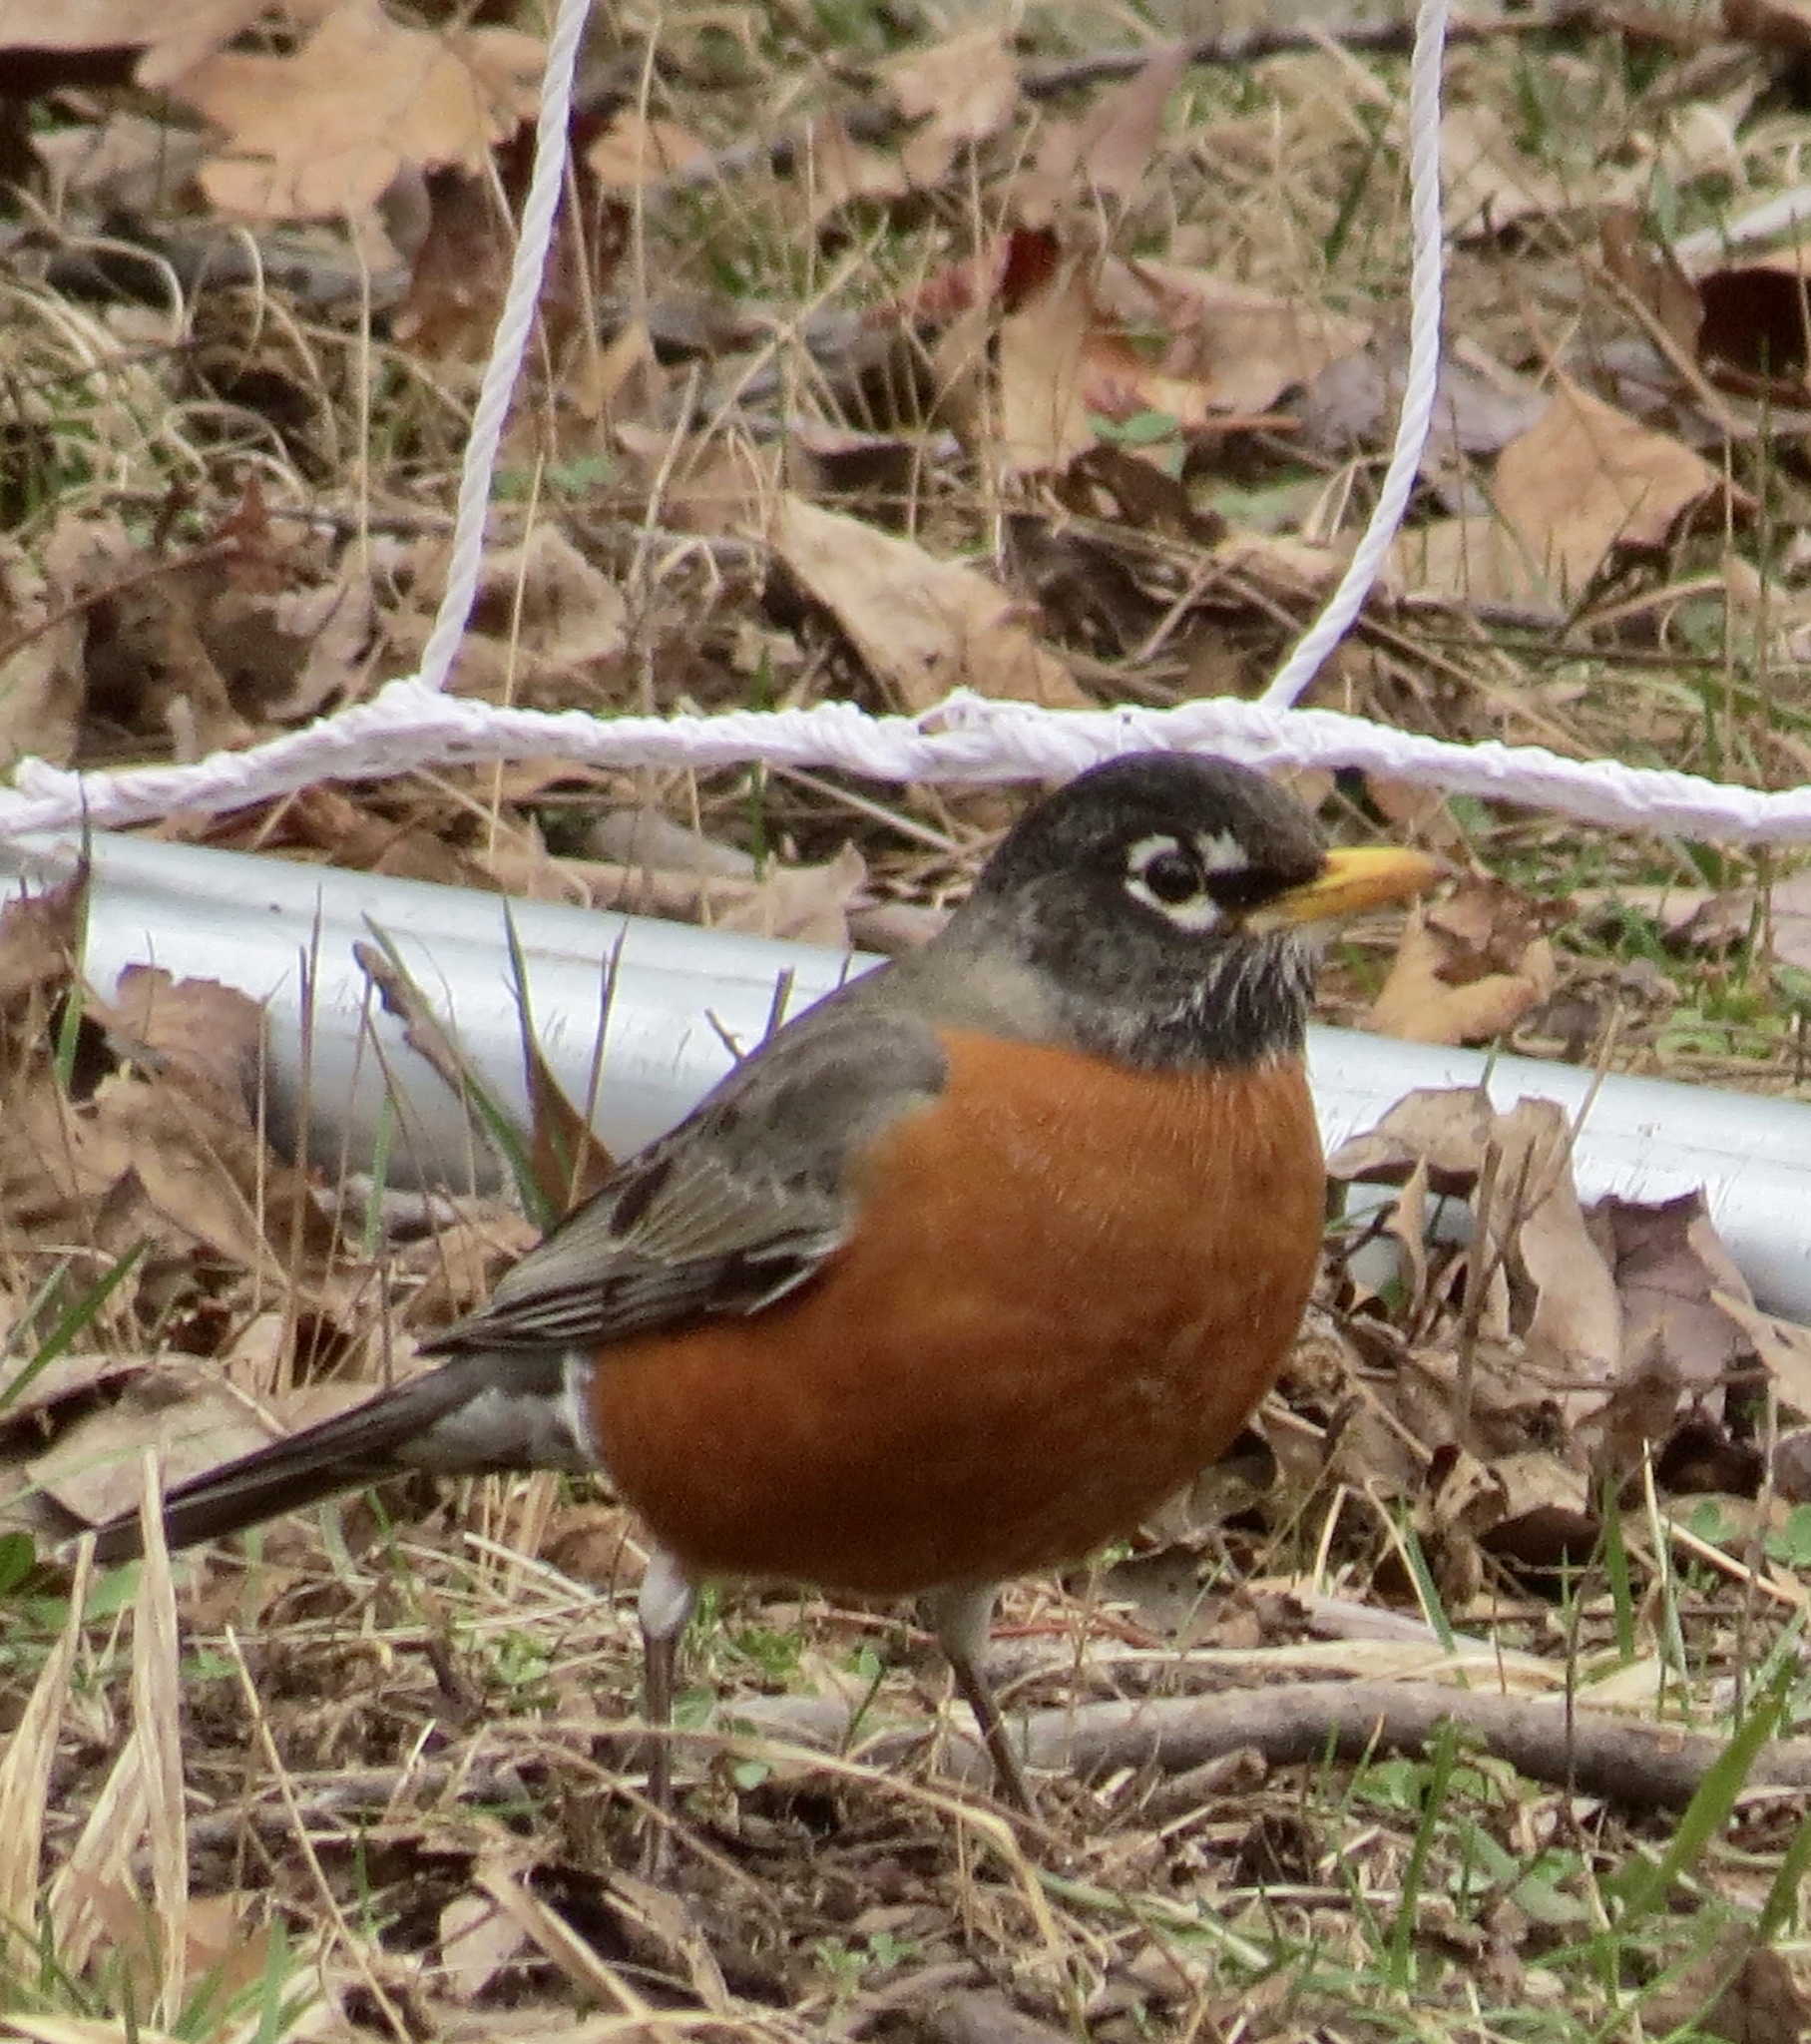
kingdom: Animalia
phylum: Chordata
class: Aves
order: Passeriformes
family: Turdidae
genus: Turdus
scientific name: Turdus migratorius
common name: American robin
